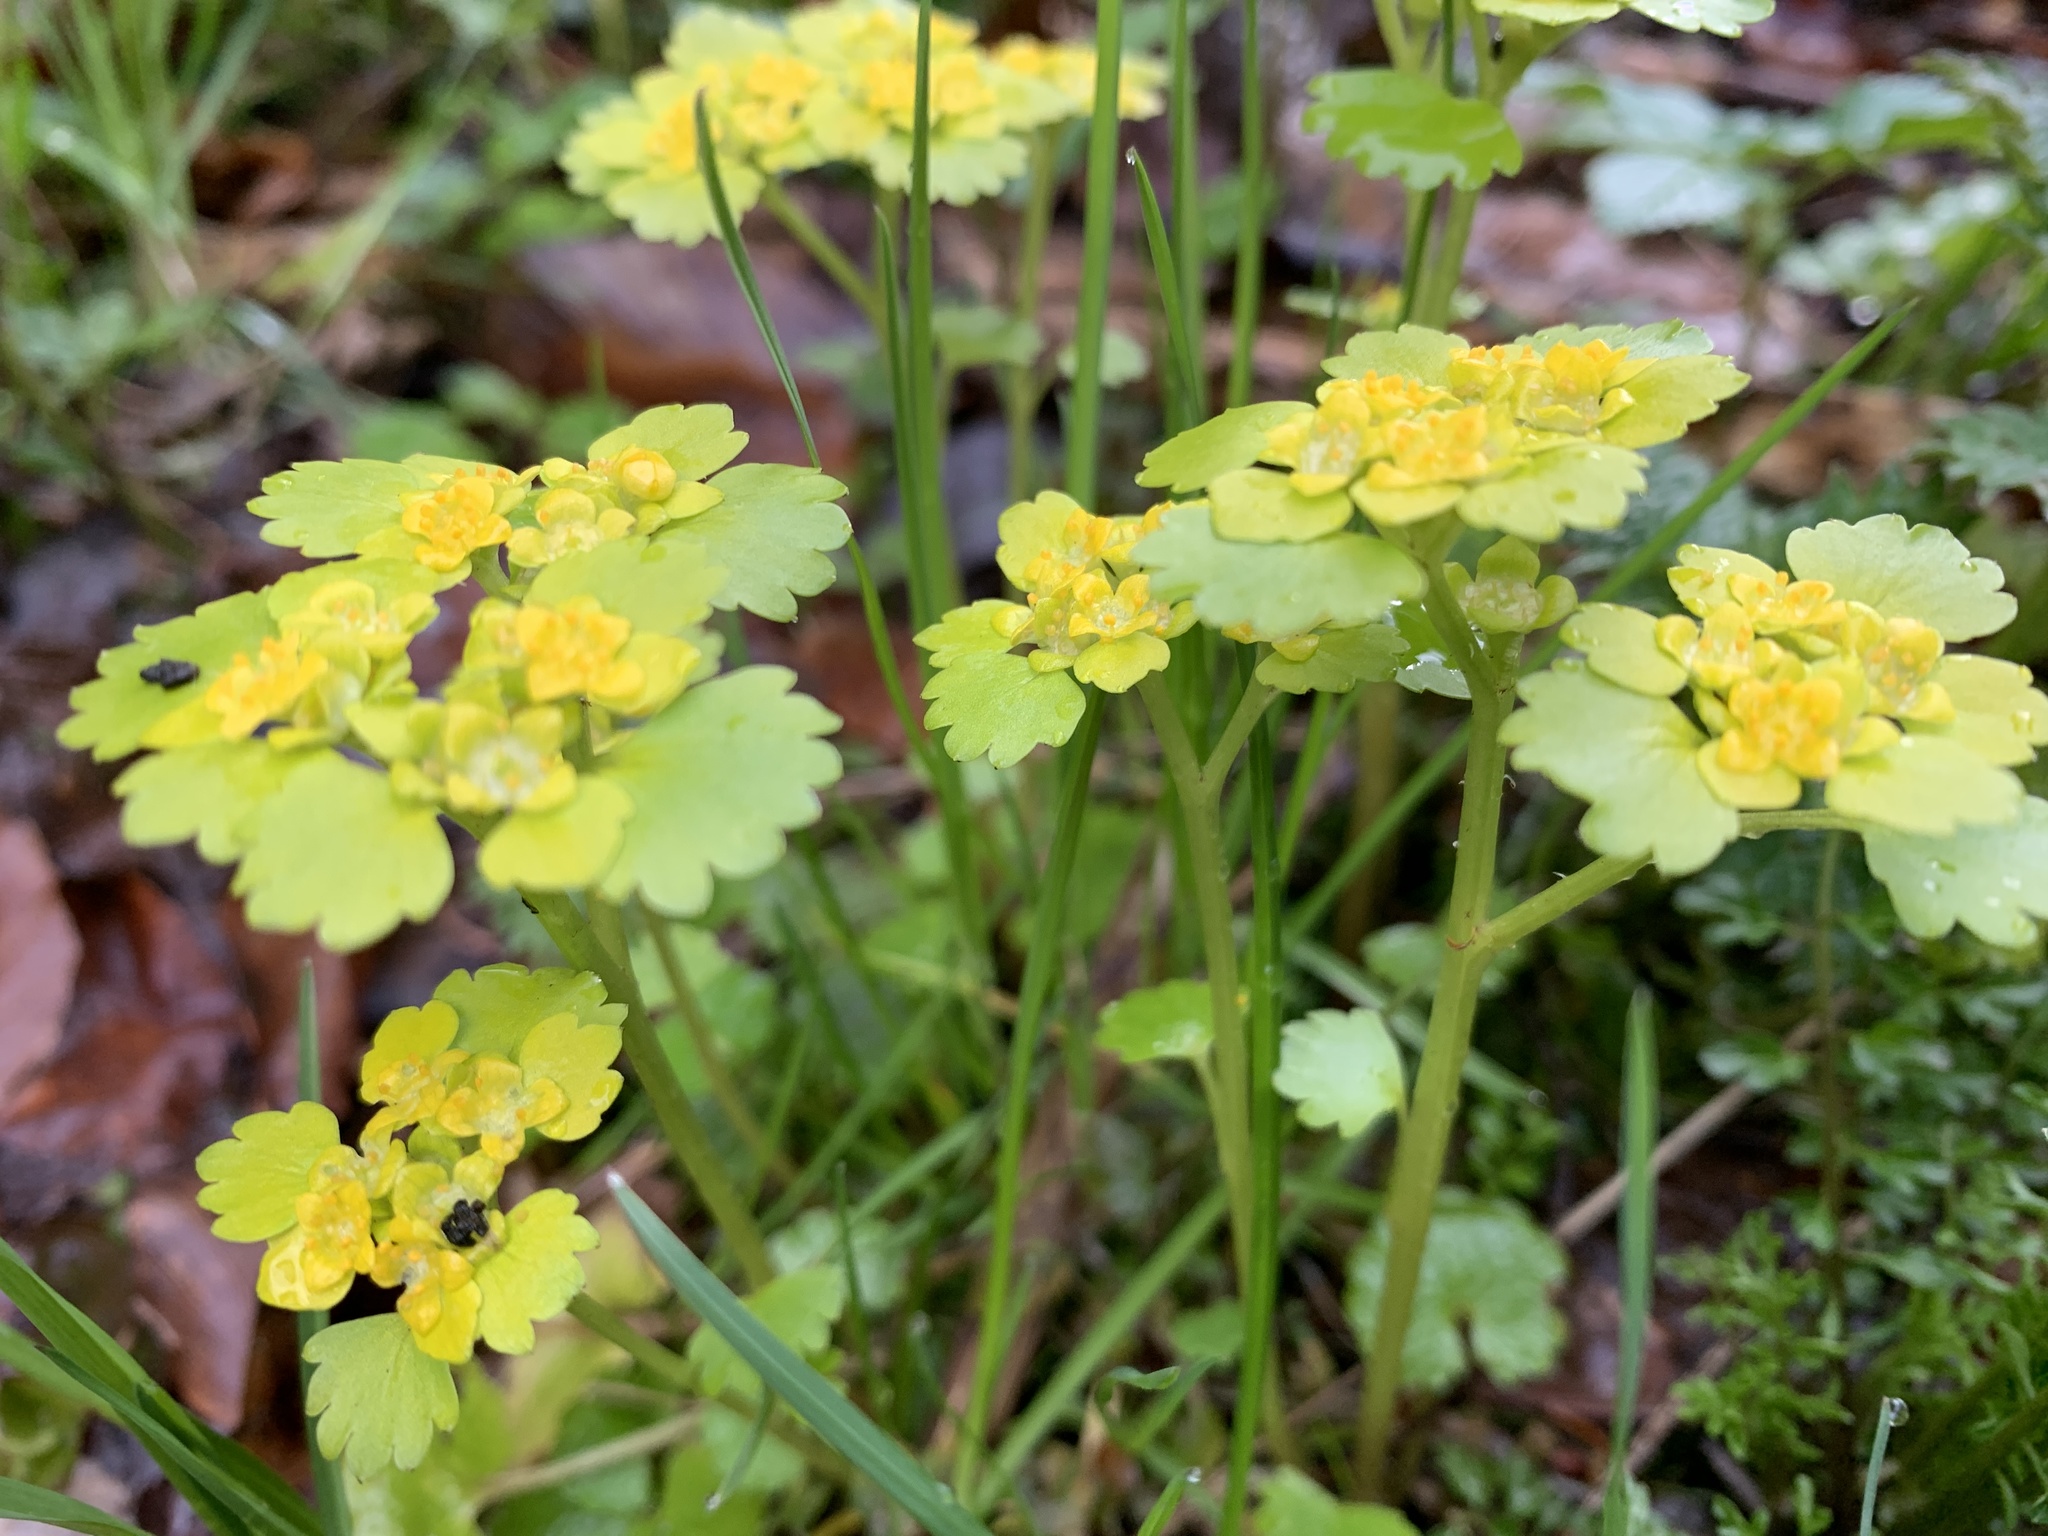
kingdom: Plantae
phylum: Tracheophyta
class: Magnoliopsida
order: Saxifragales
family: Saxifragaceae
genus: Chrysosplenium
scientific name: Chrysosplenium alternifolium
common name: Alternate-leaved golden-saxifrage
